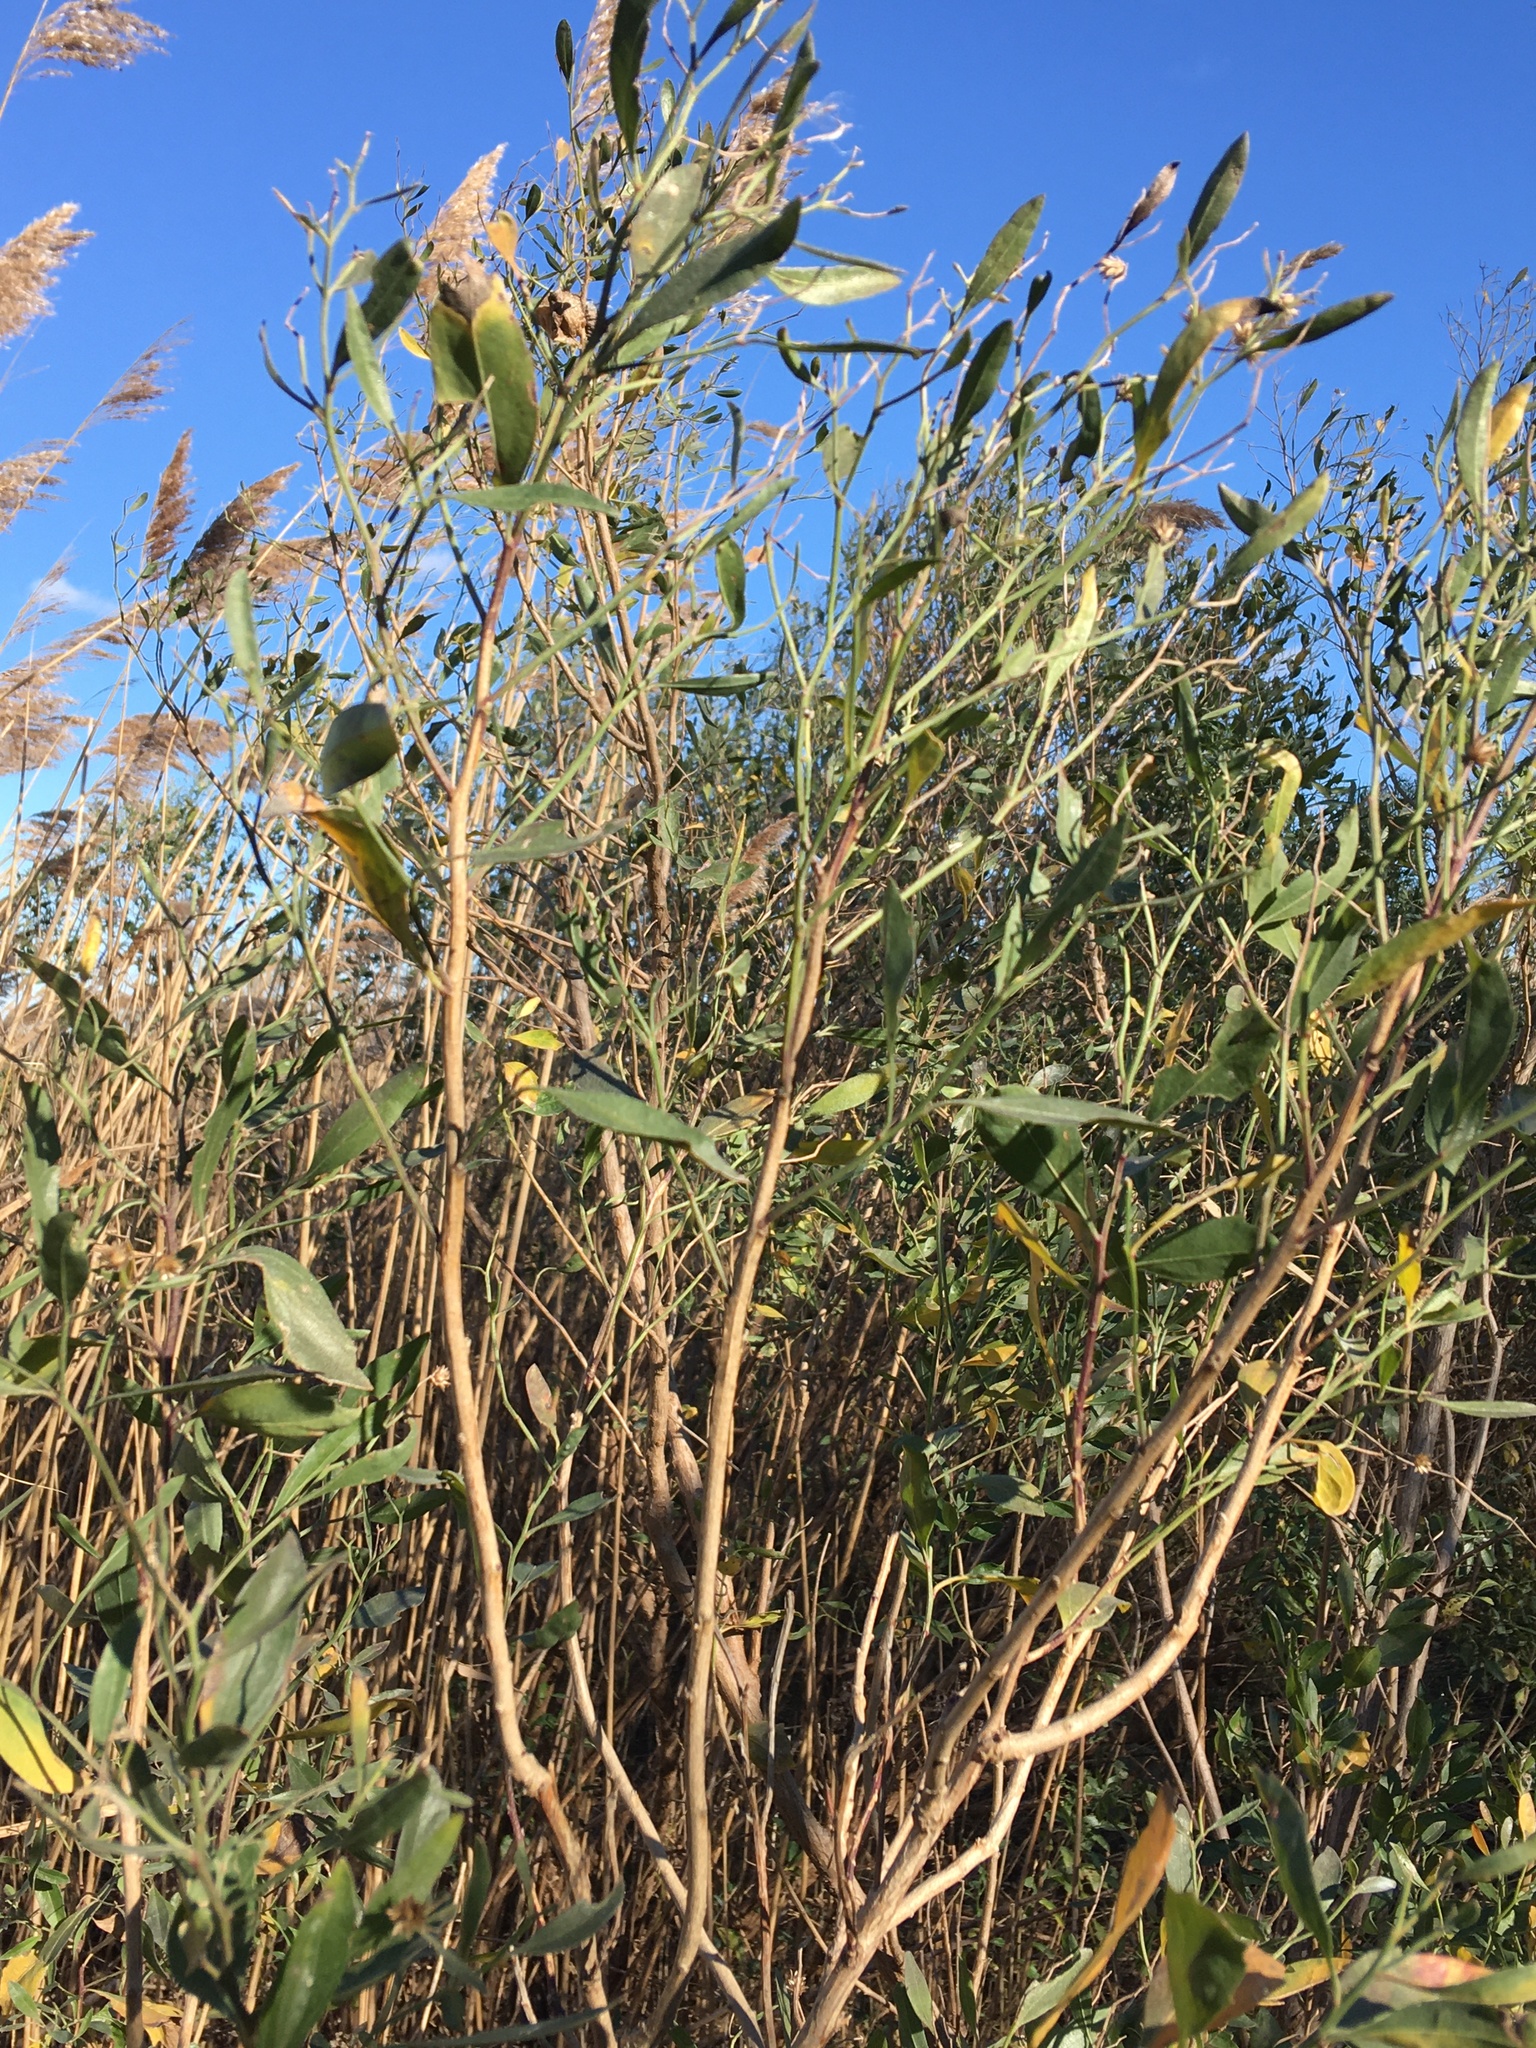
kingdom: Plantae
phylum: Tracheophyta
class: Magnoliopsida
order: Asterales
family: Asteraceae
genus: Baccharis
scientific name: Baccharis halimifolia
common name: Eastern baccharis
